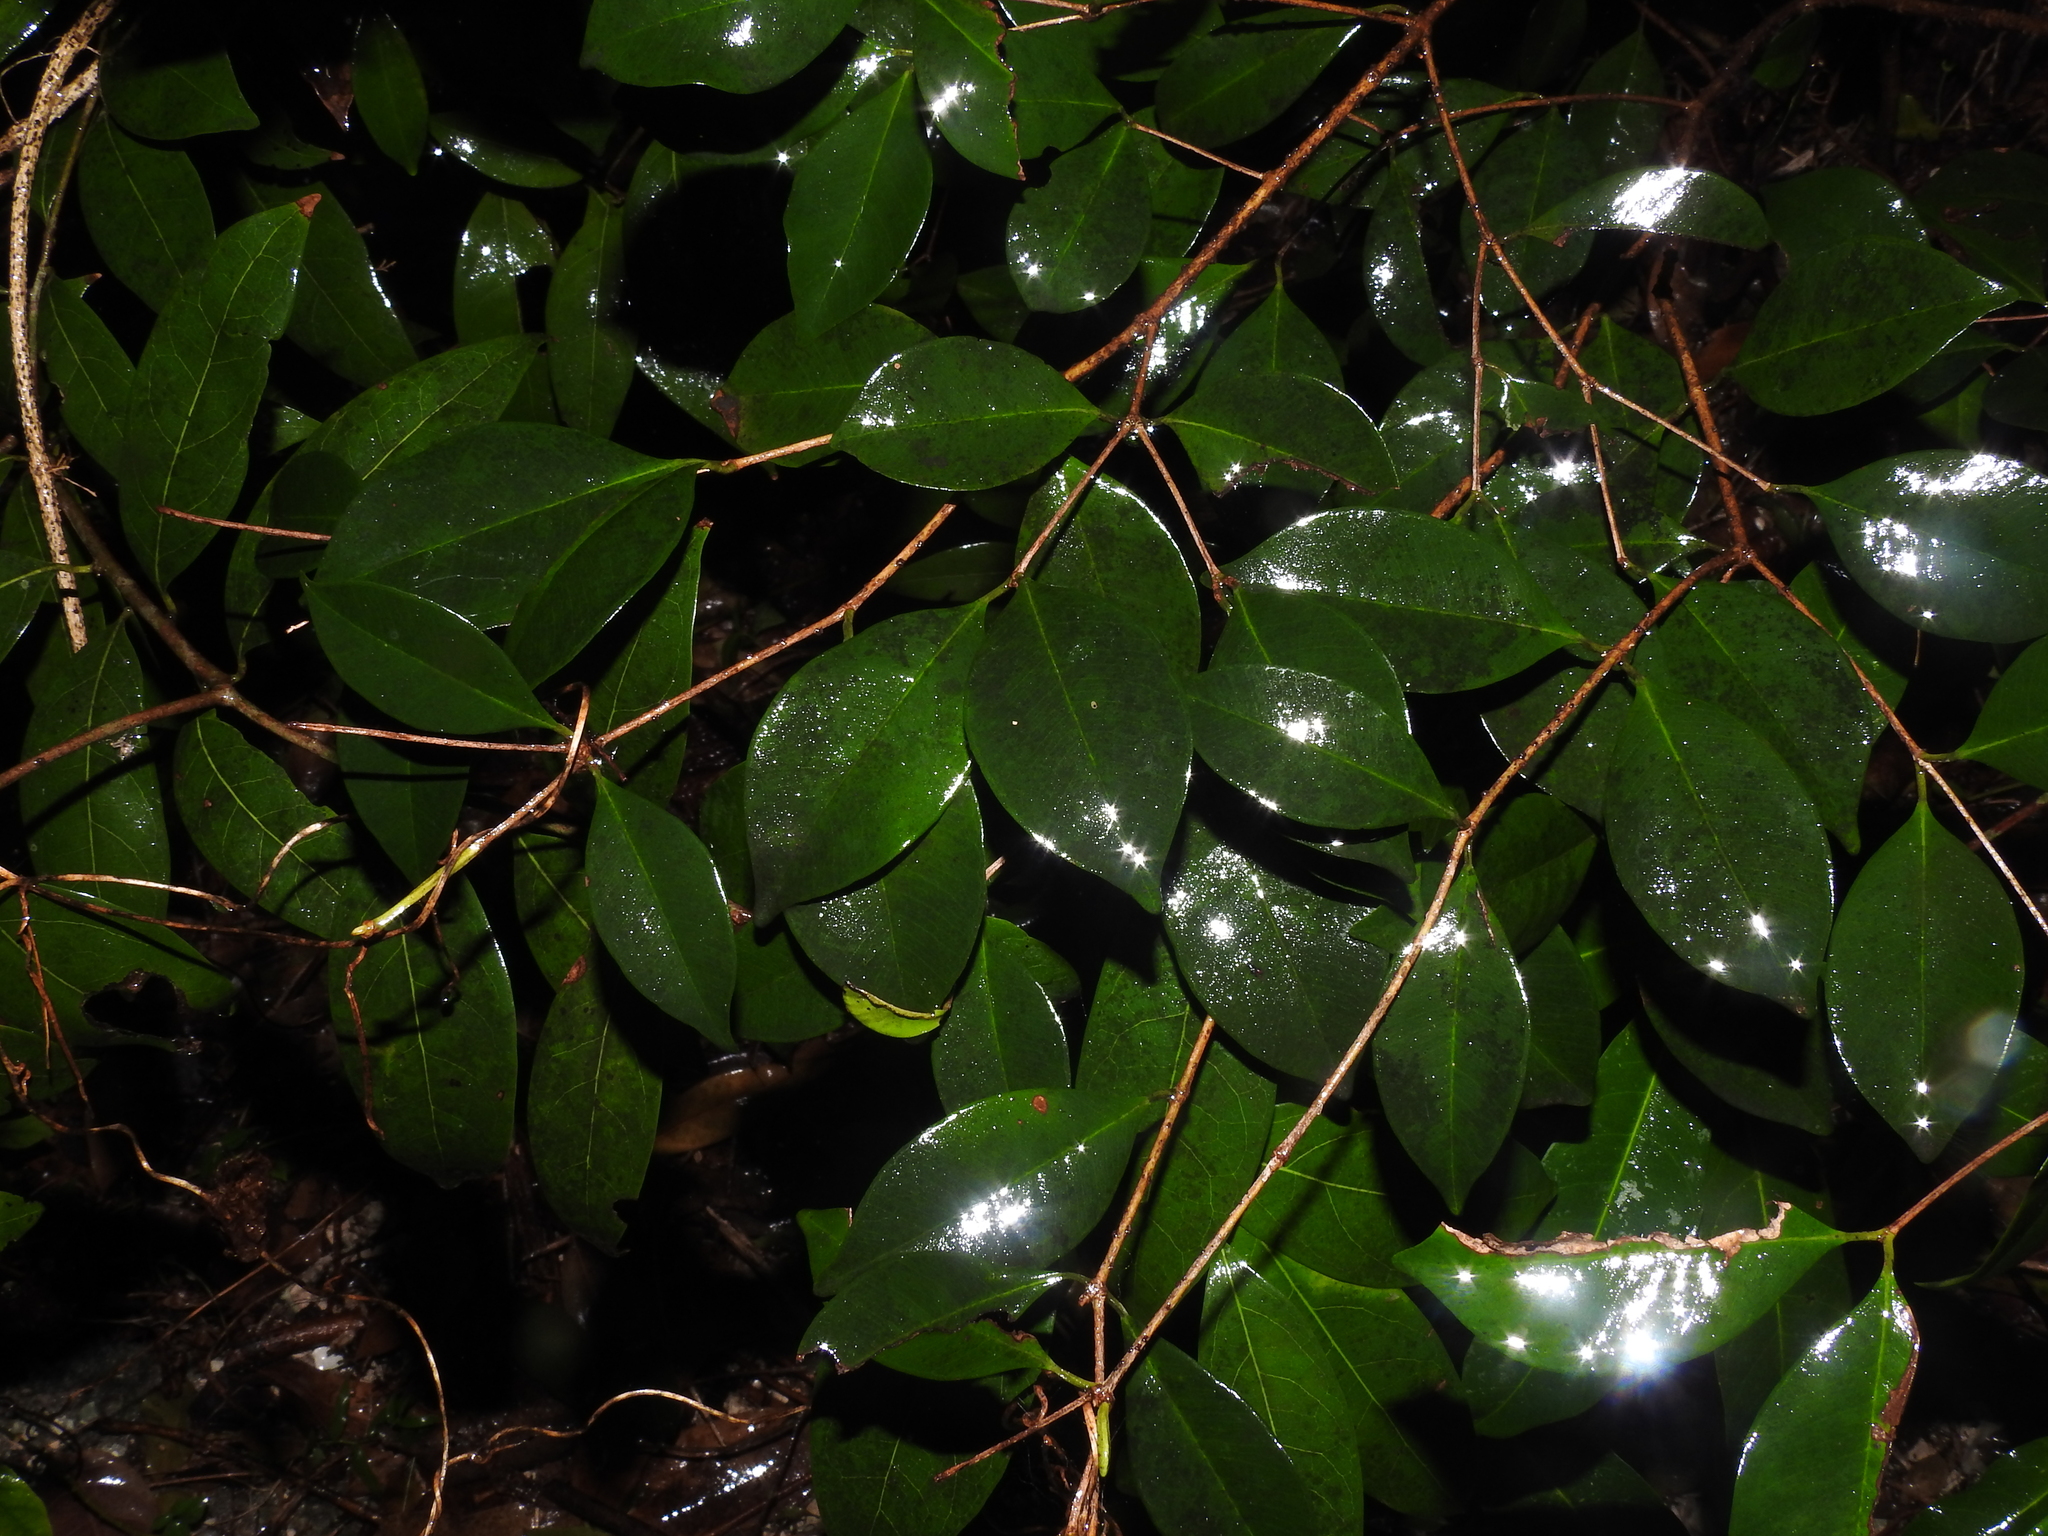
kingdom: Plantae
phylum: Tracheophyta
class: Magnoliopsida
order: Myrtales
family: Myrtaceae
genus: Eugenia
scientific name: Eugenia confusa
